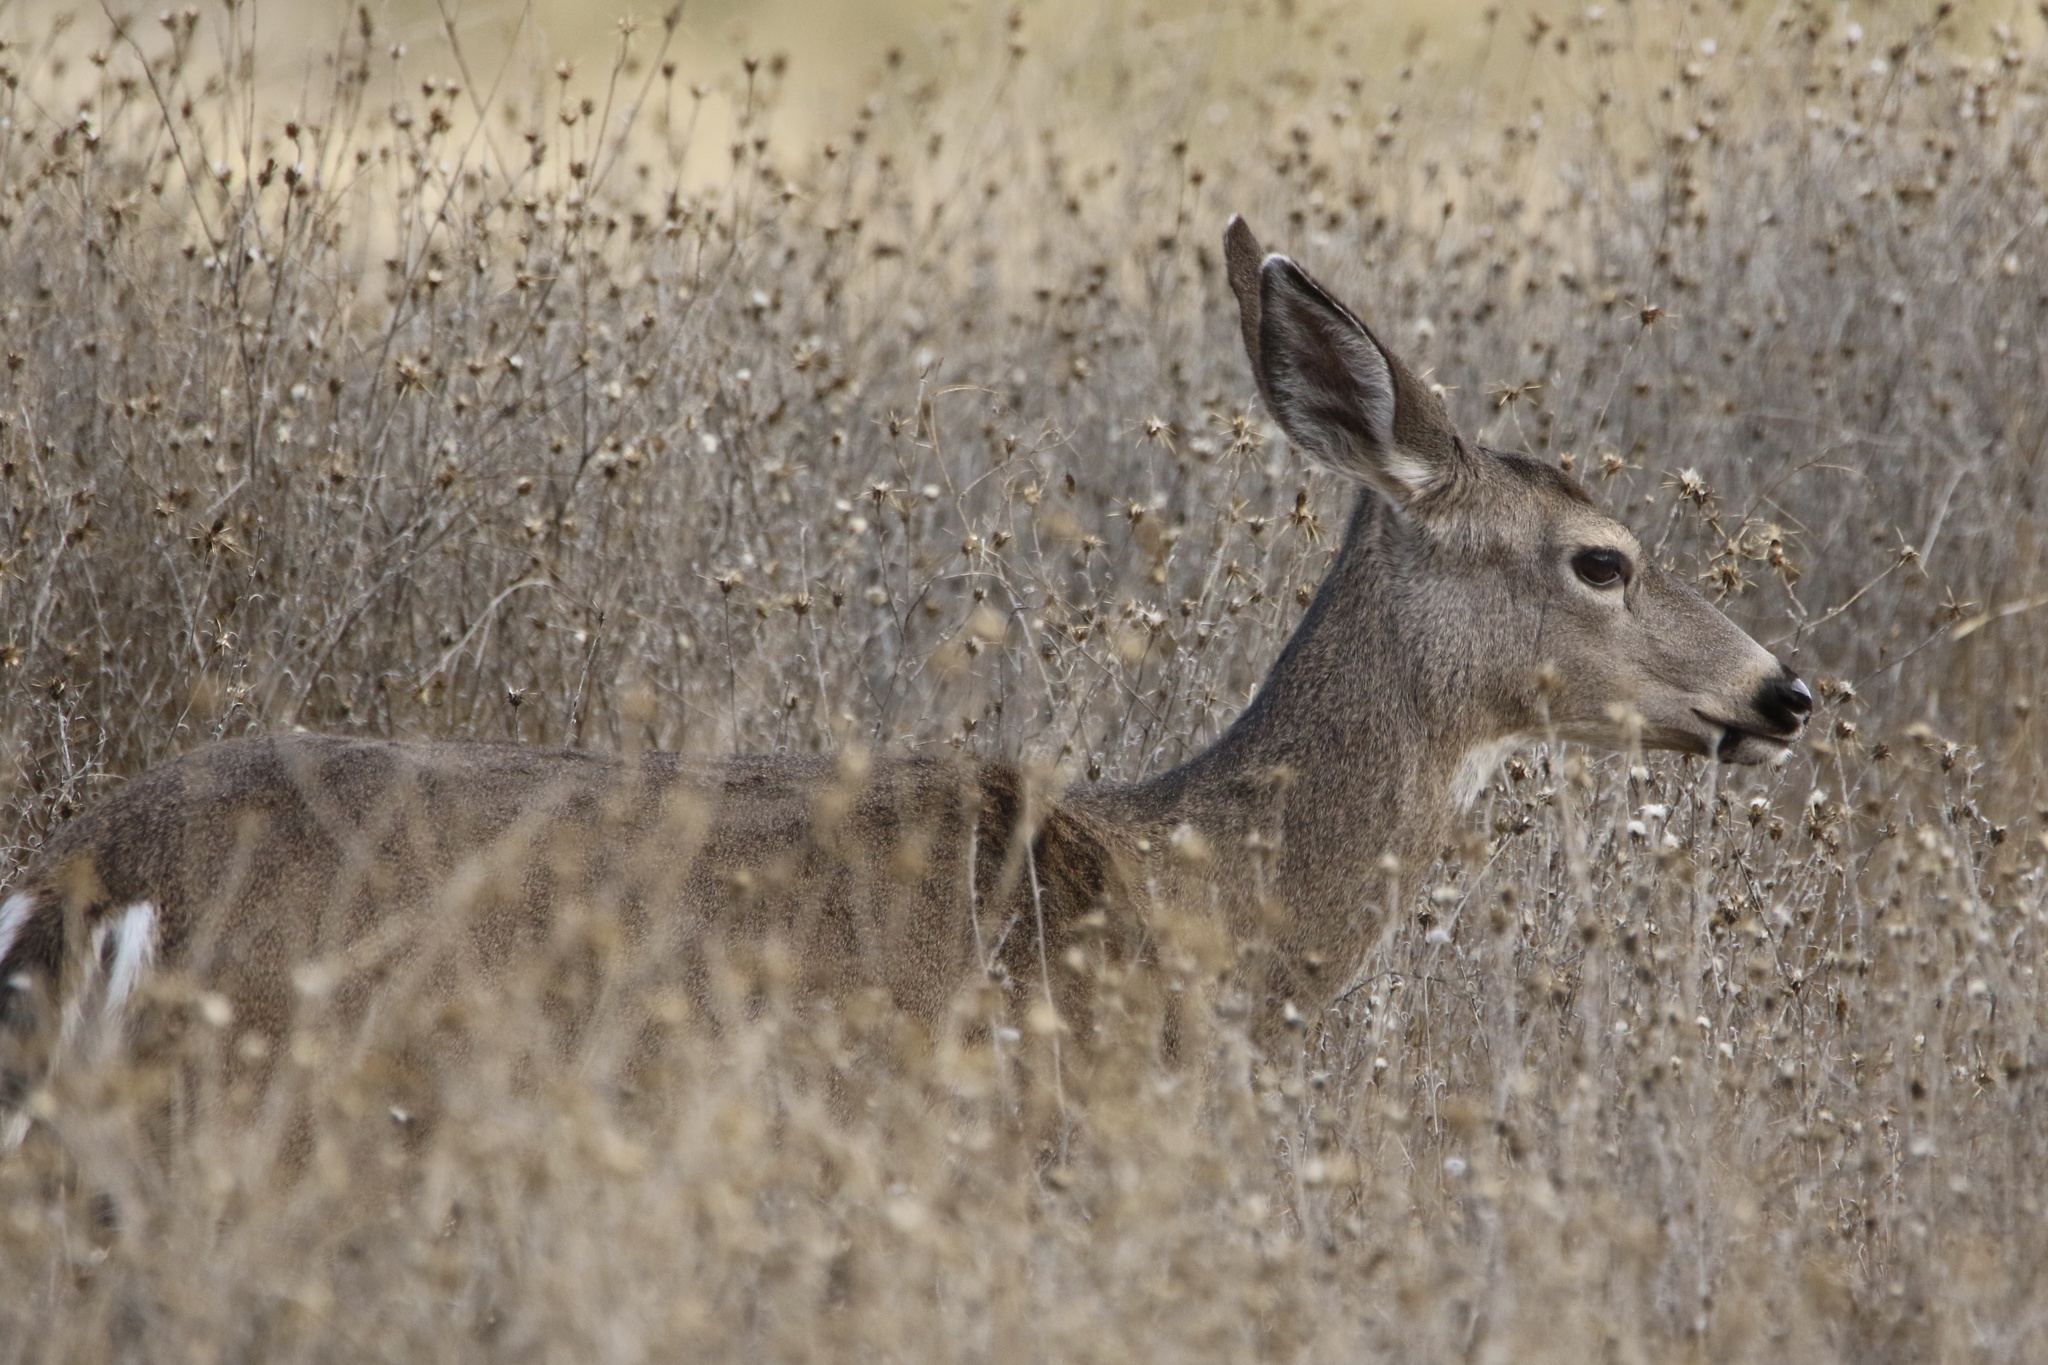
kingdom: Animalia
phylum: Chordata
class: Mammalia
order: Artiodactyla
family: Cervidae
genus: Odocoileus
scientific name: Odocoileus hemionus
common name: Mule deer
